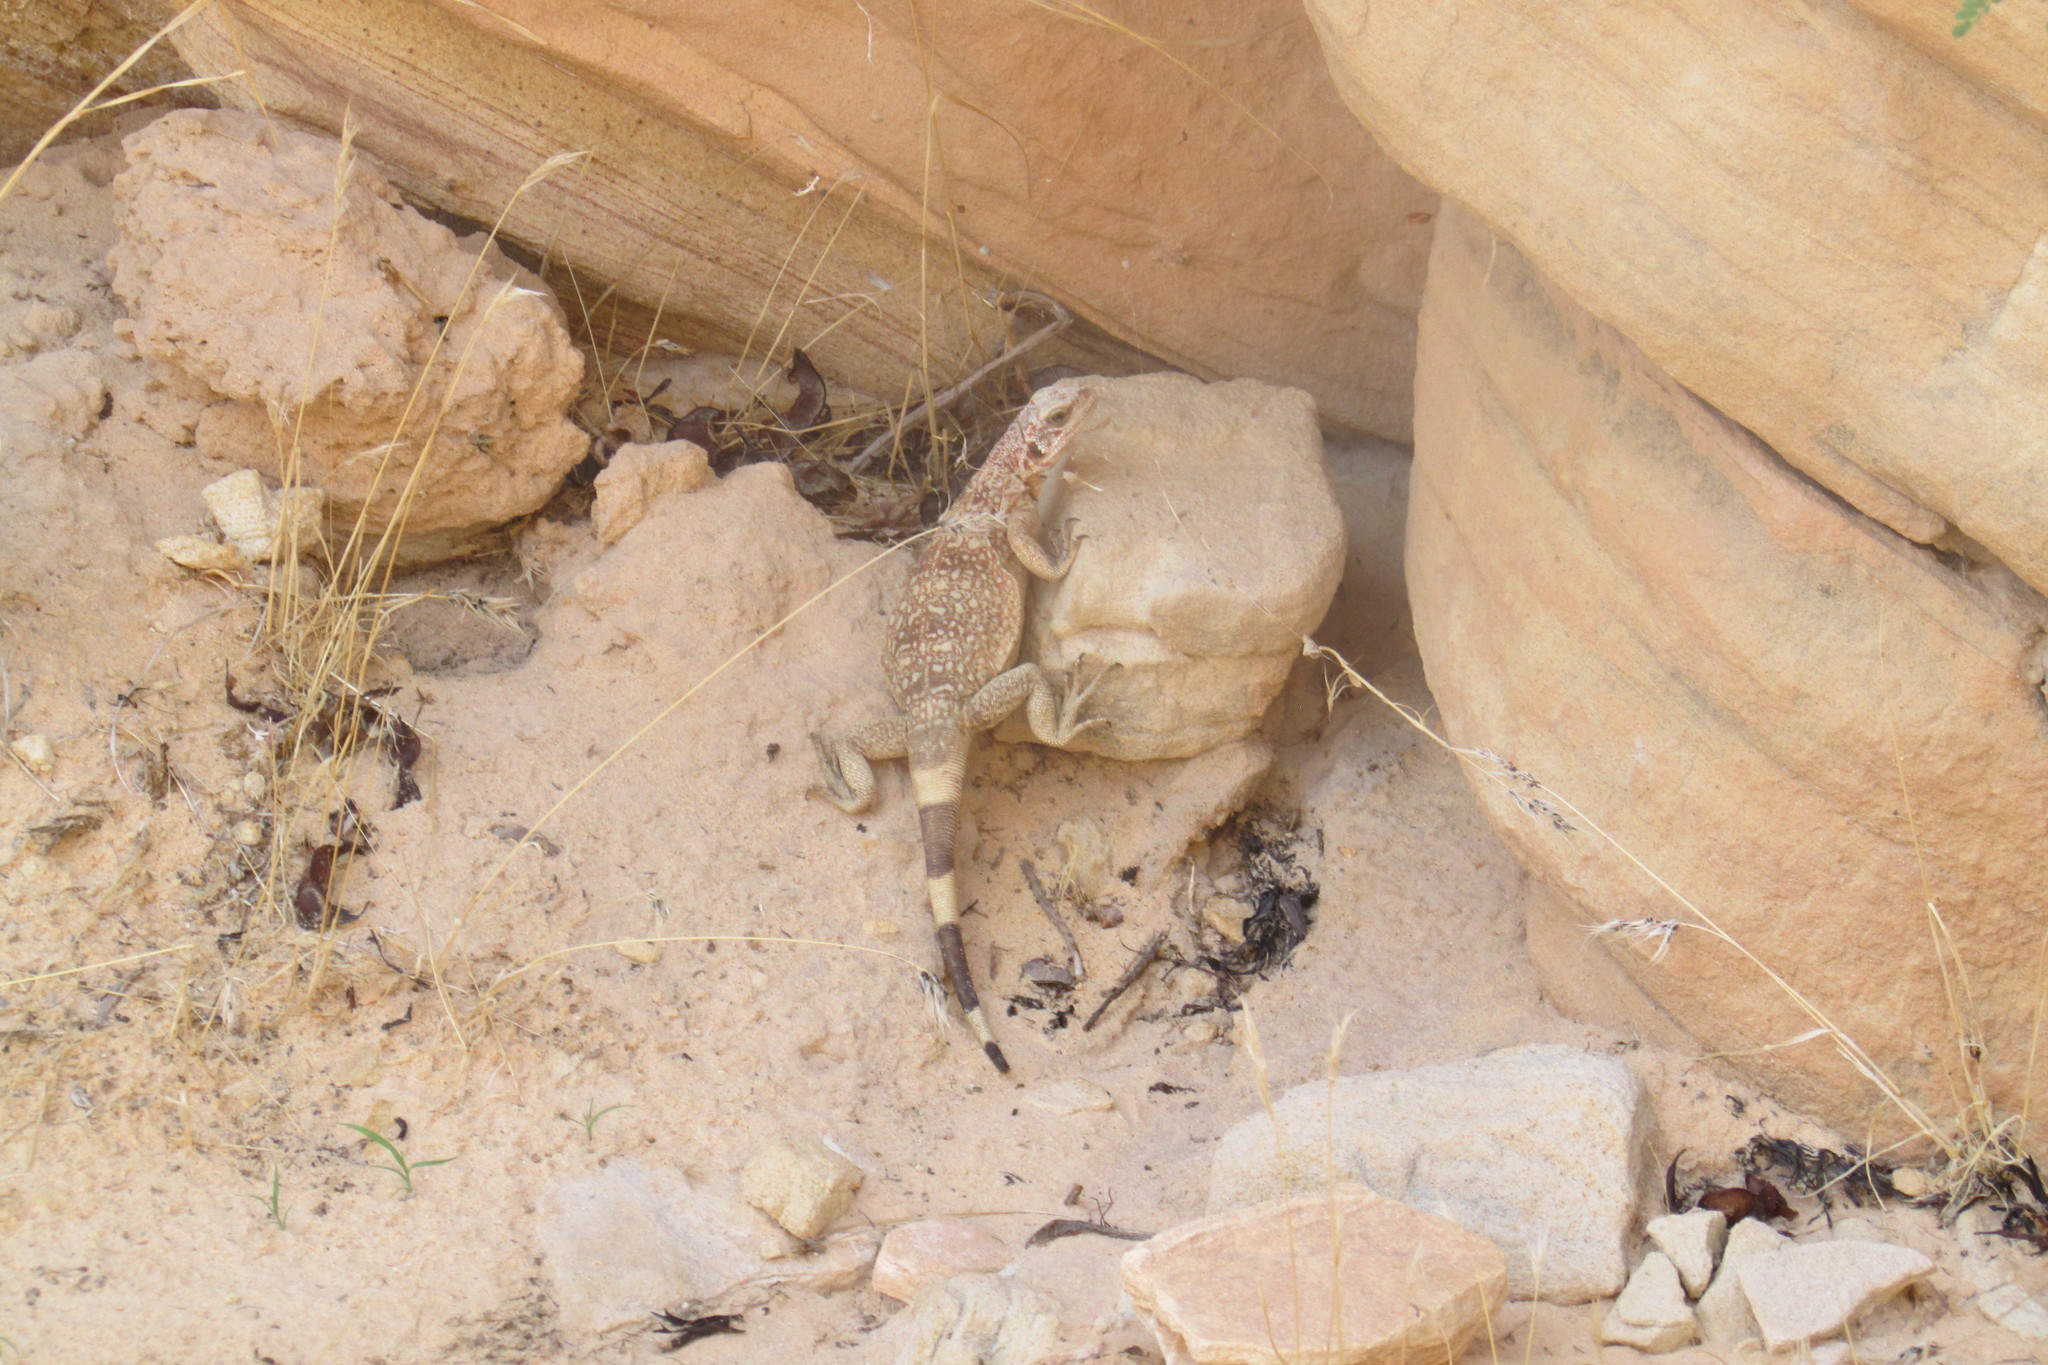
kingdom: Animalia
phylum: Chordata
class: Squamata
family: Iguanidae
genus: Sauromalus
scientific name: Sauromalus ater
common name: Northern chuckwalla
